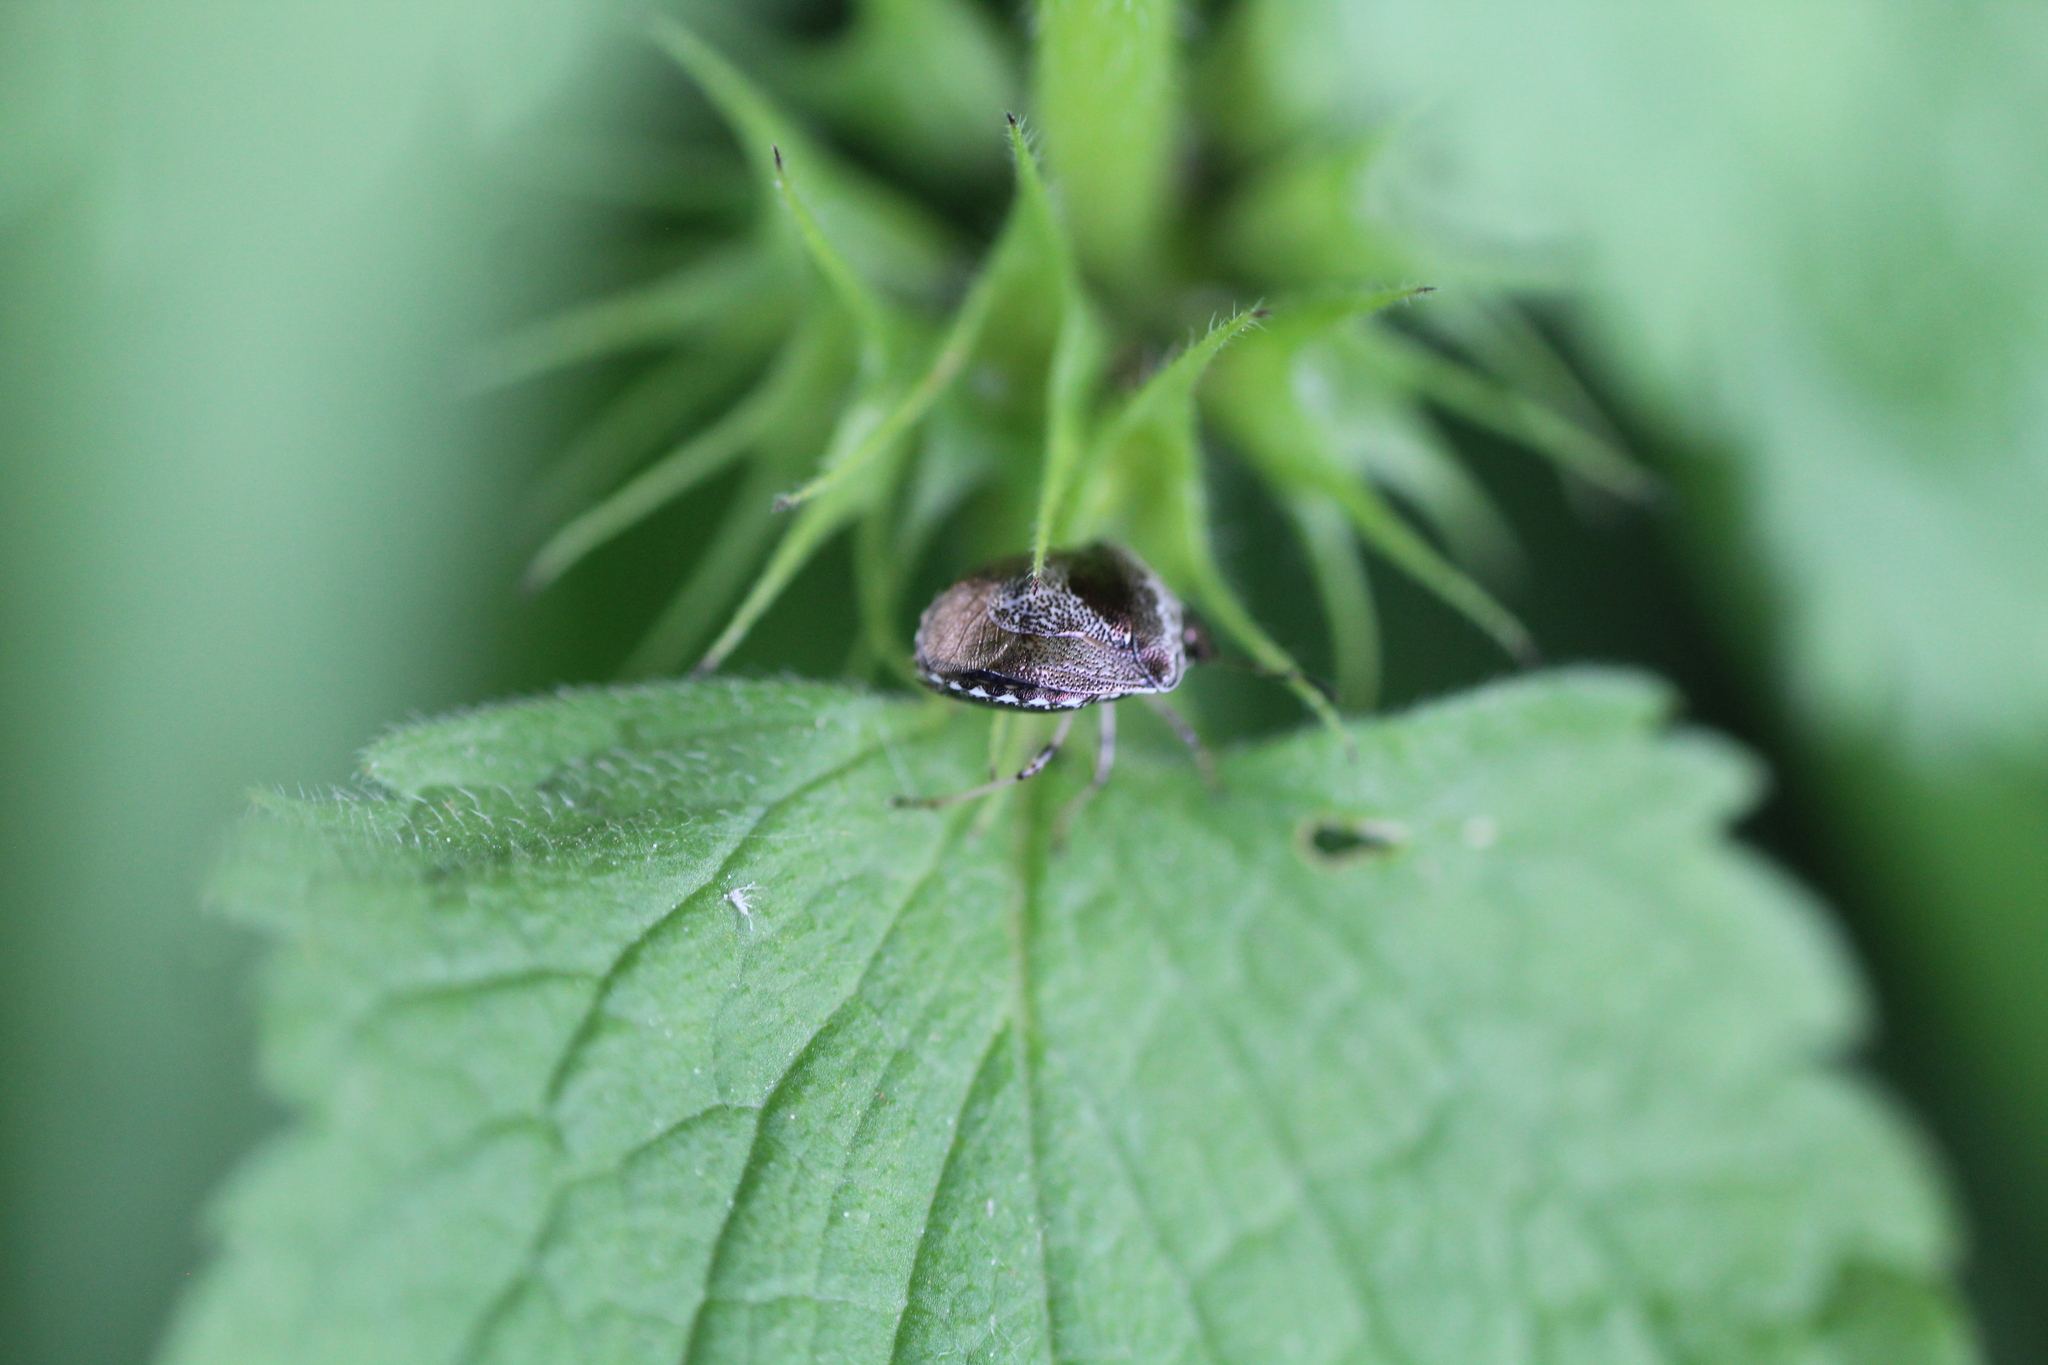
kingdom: Animalia
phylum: Arthropoda
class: Insecta
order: Hemiptera
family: Pentatomidae
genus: Eysarcoris
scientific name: Eysarcoris venustissimus
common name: Woundwort shieldbug
